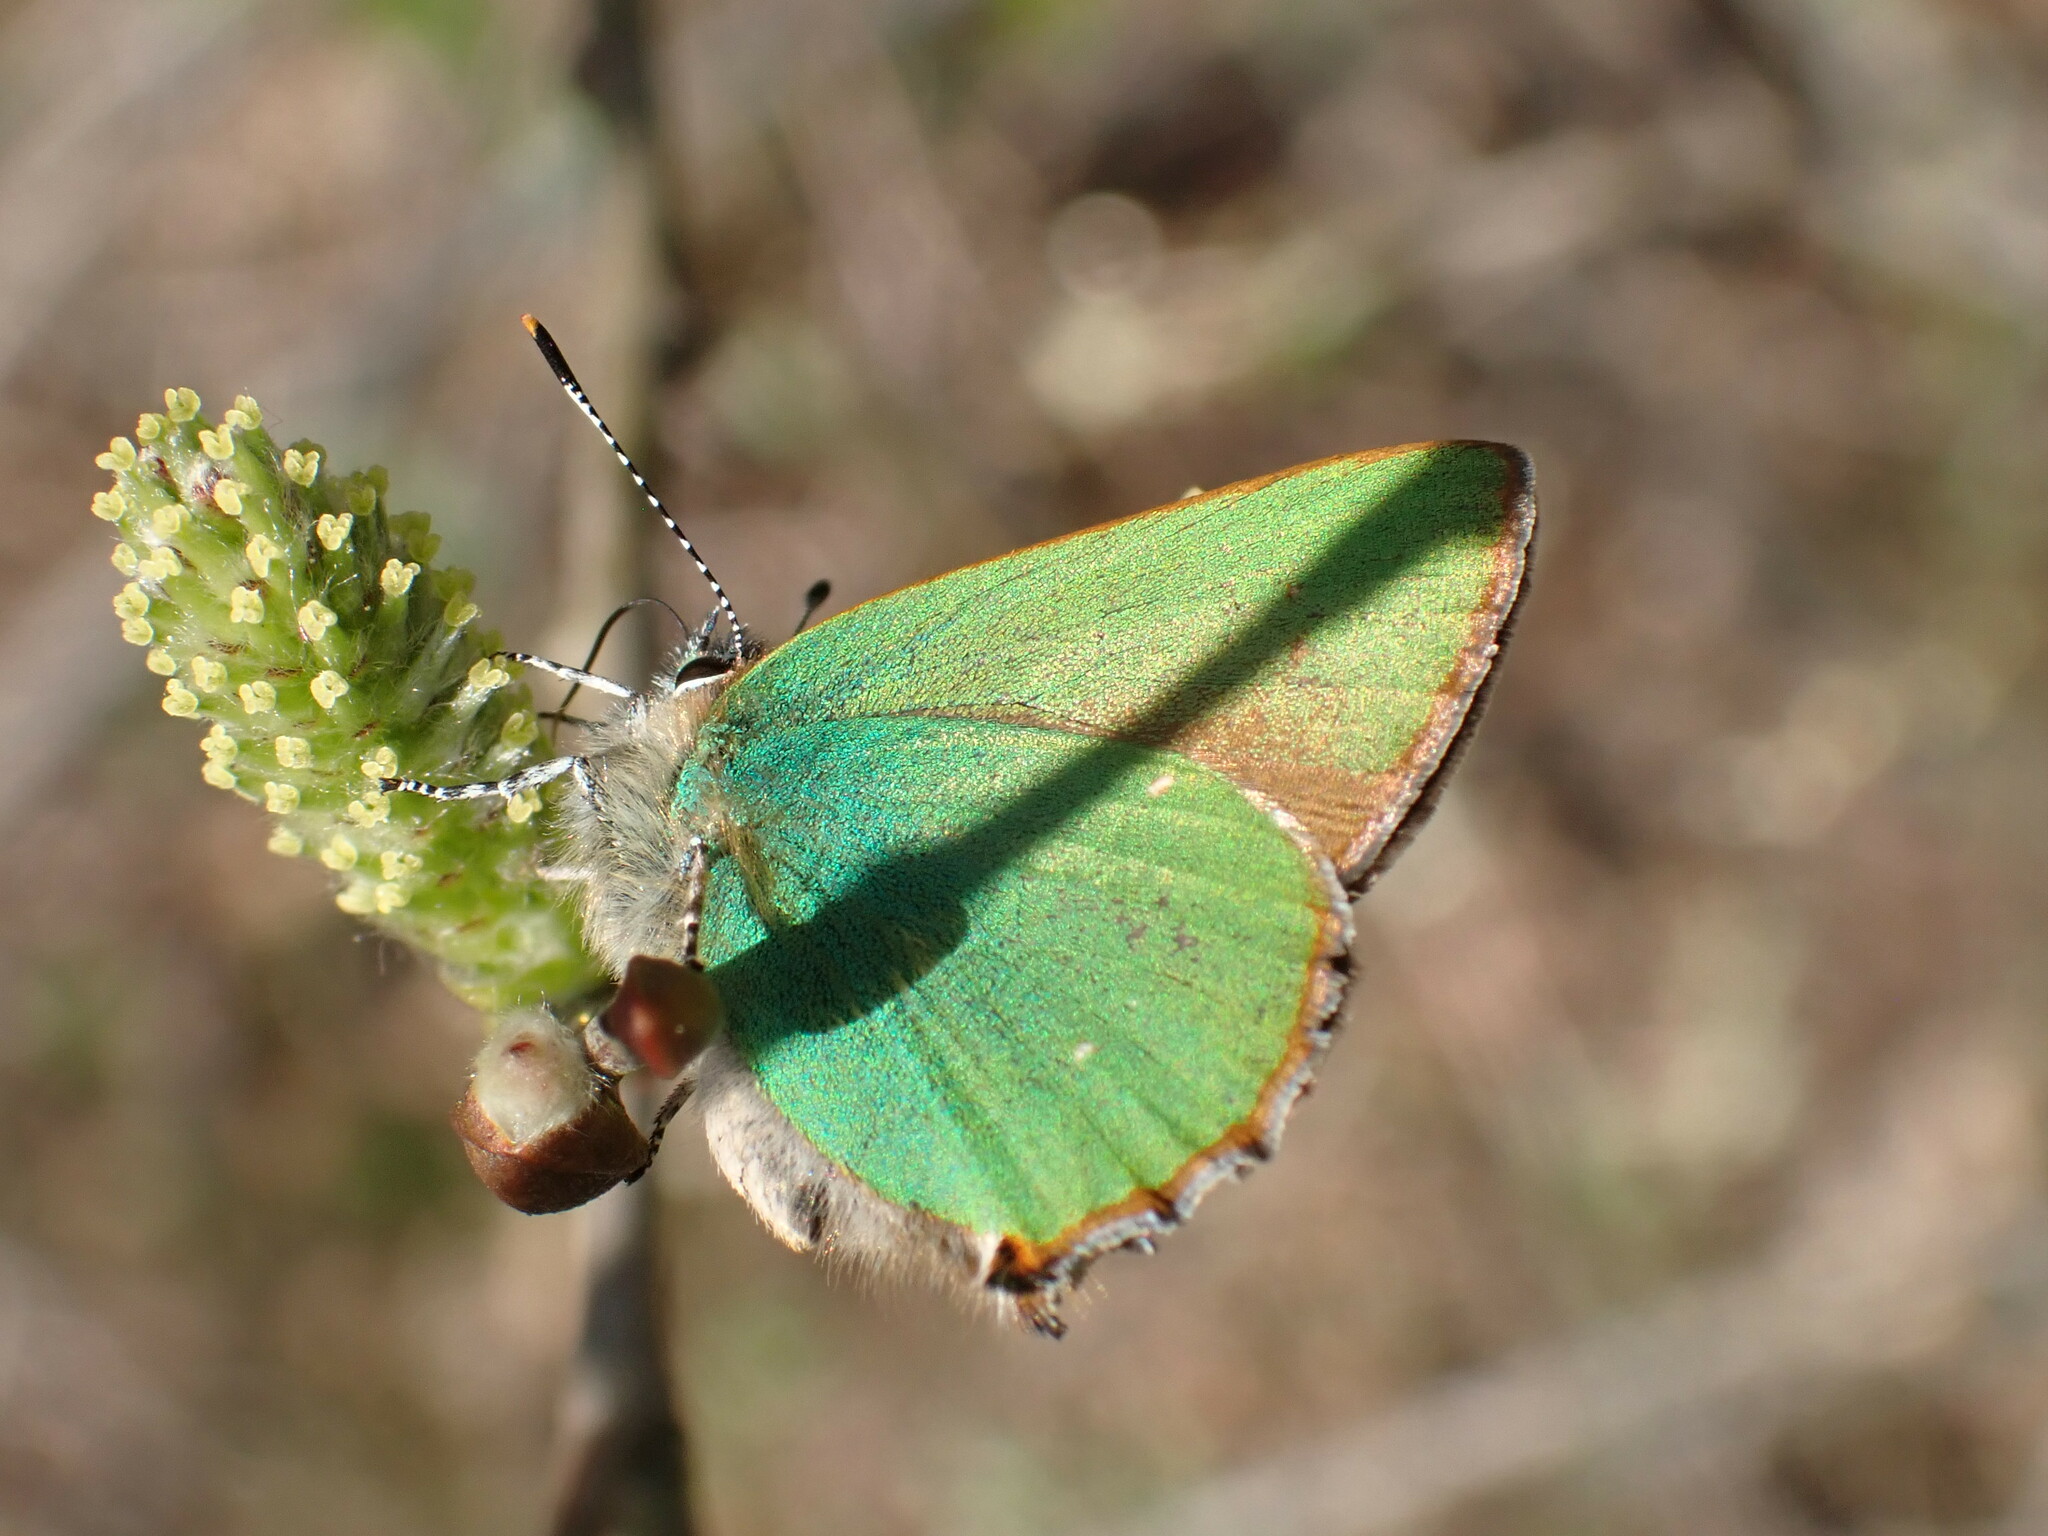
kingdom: Animalia
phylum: Arthropoda
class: Insecta
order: Lepidoptera
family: Lycaenidae
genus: Callophrys
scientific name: Callophrys rubi
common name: Green hairstreak
